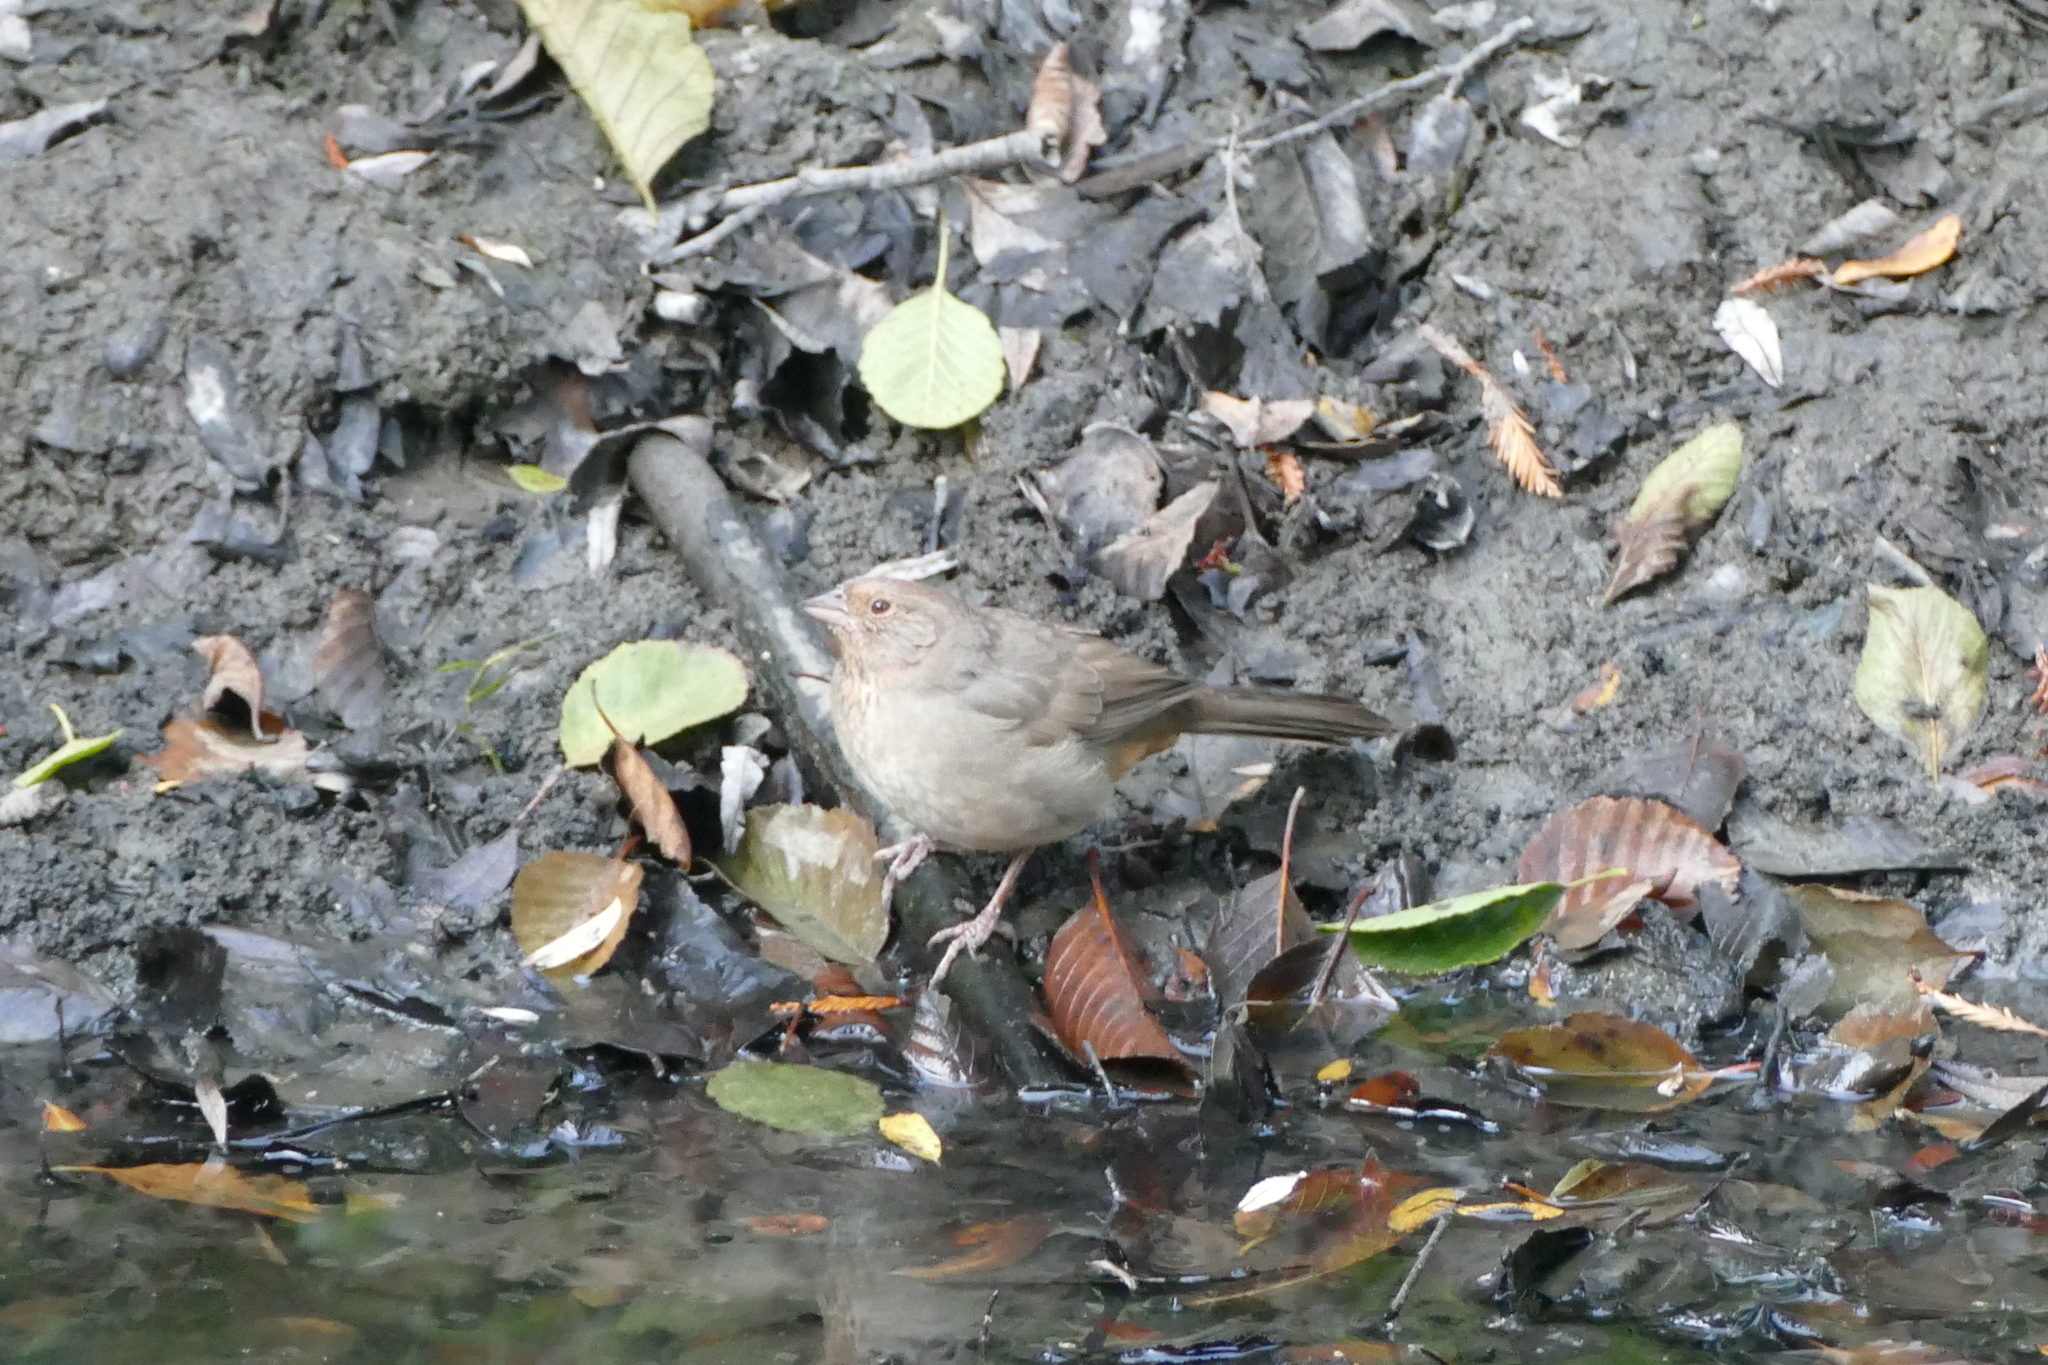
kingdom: Animalia
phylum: Chordata
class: Aves
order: Passeriformes
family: Passerellidae
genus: Melozone
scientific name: Melozone crissalis
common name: California towhee
